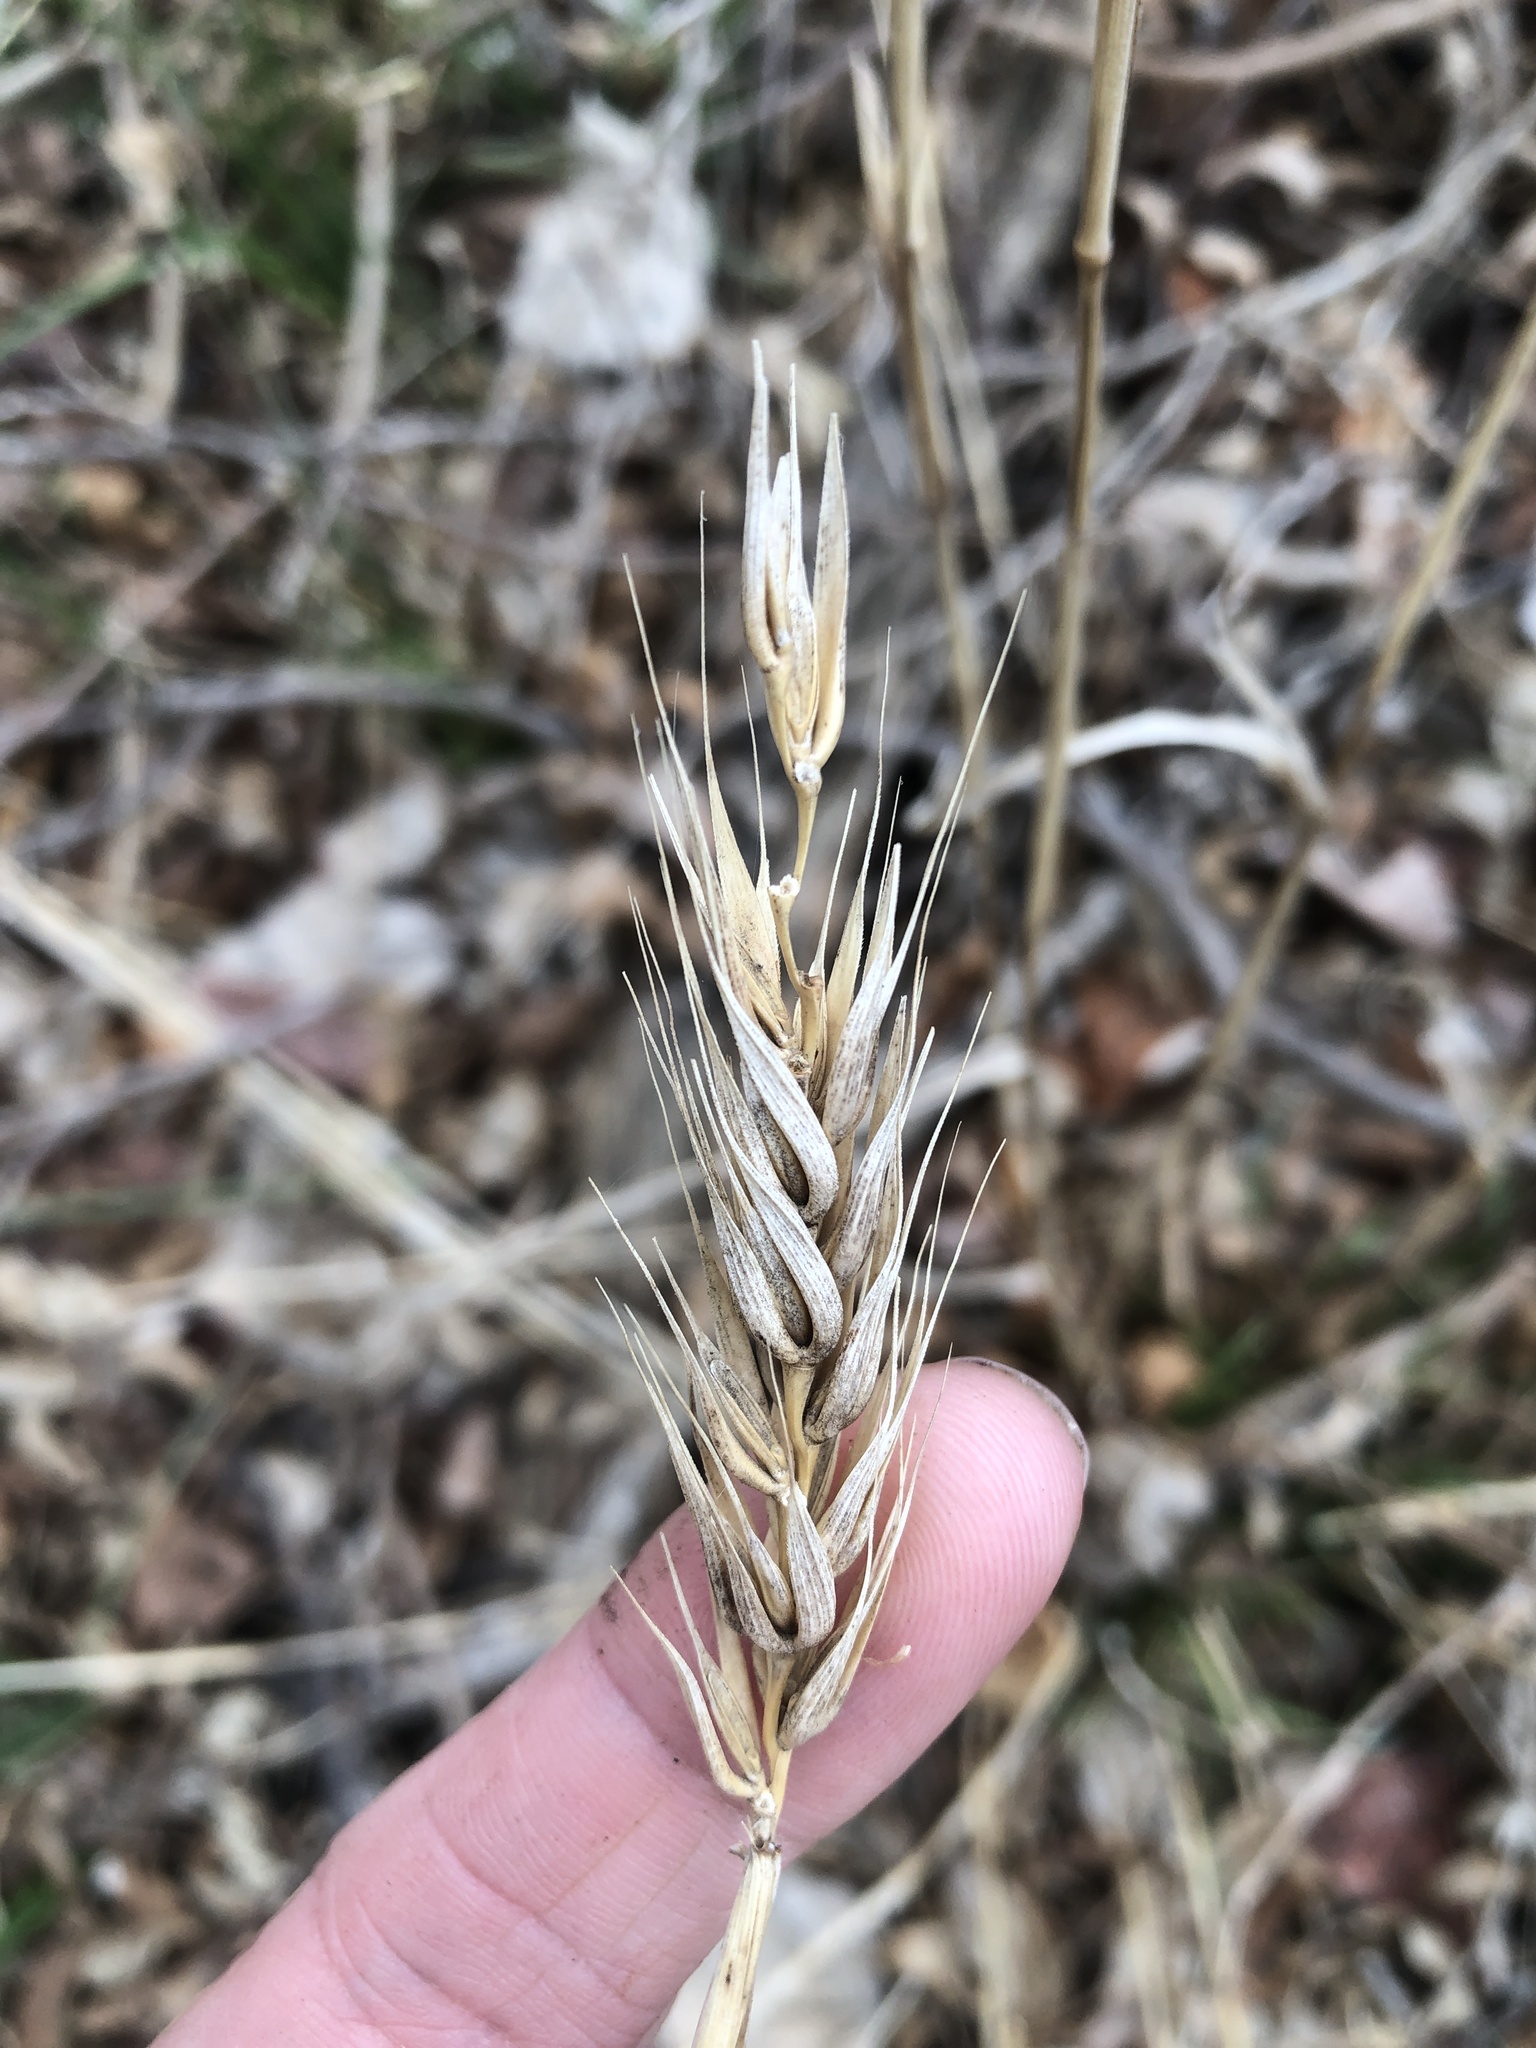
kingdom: Plantae
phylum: Tracheophyta
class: Liliopsida
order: Poales
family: Poaceae
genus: Elymus
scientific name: Elymus virginicus
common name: Common eastern wildrye
